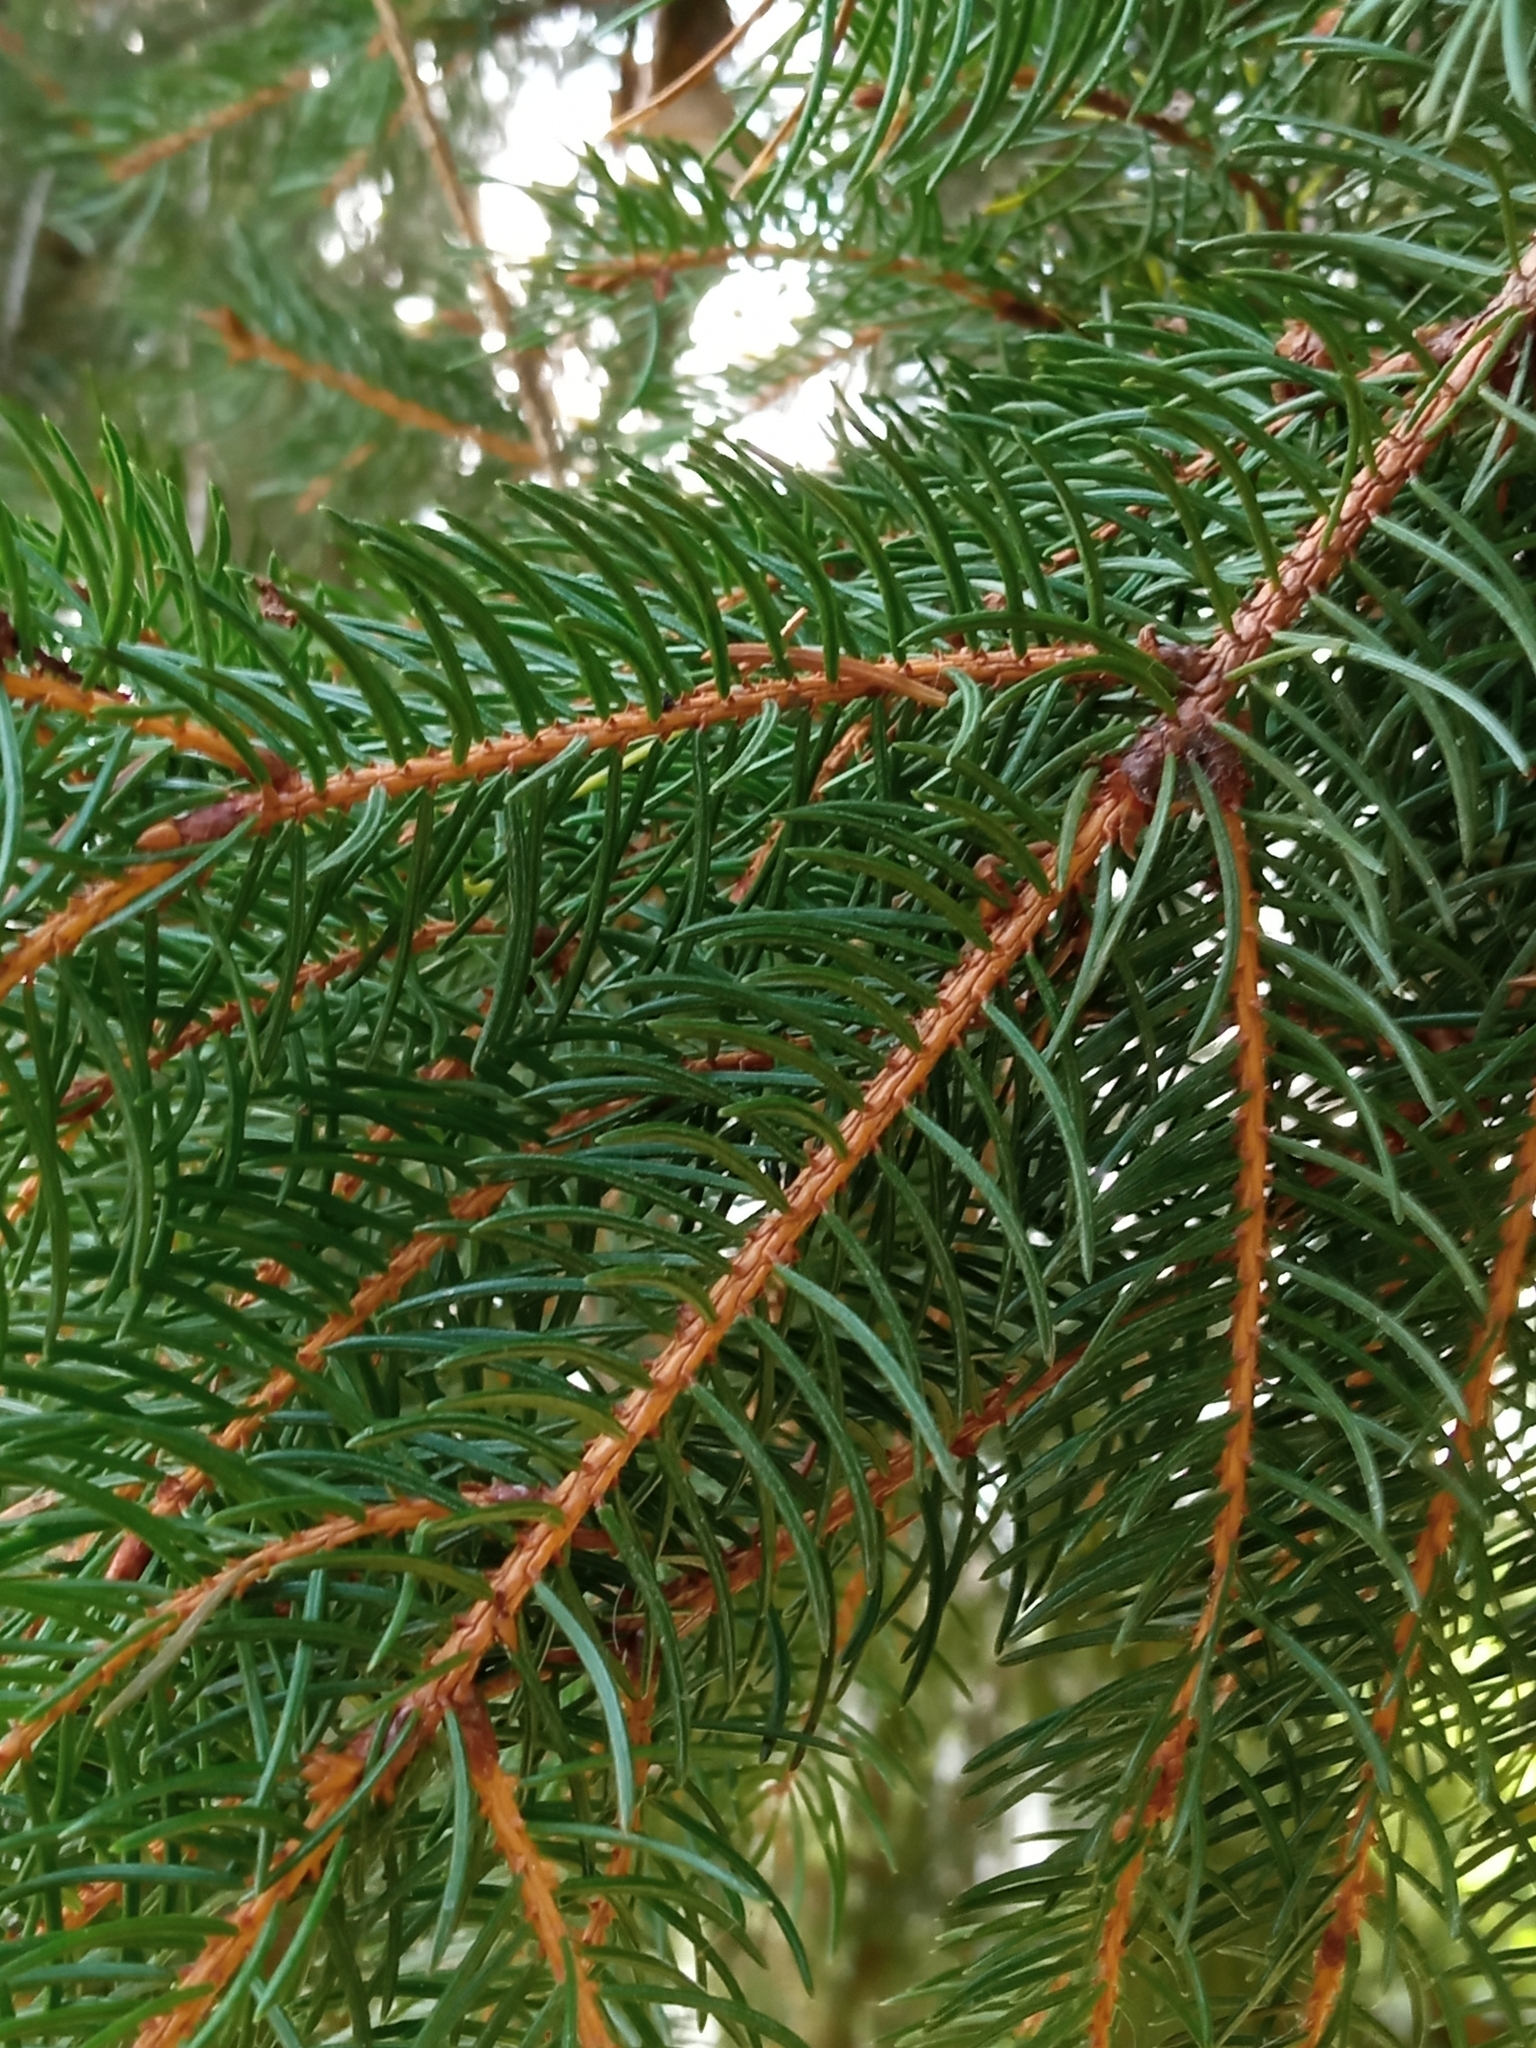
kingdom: Plantae
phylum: Tracheophyta
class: Pinopsida
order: Pinales
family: Pinaceae
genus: Picea
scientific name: Picea abies
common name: Norway spruce
